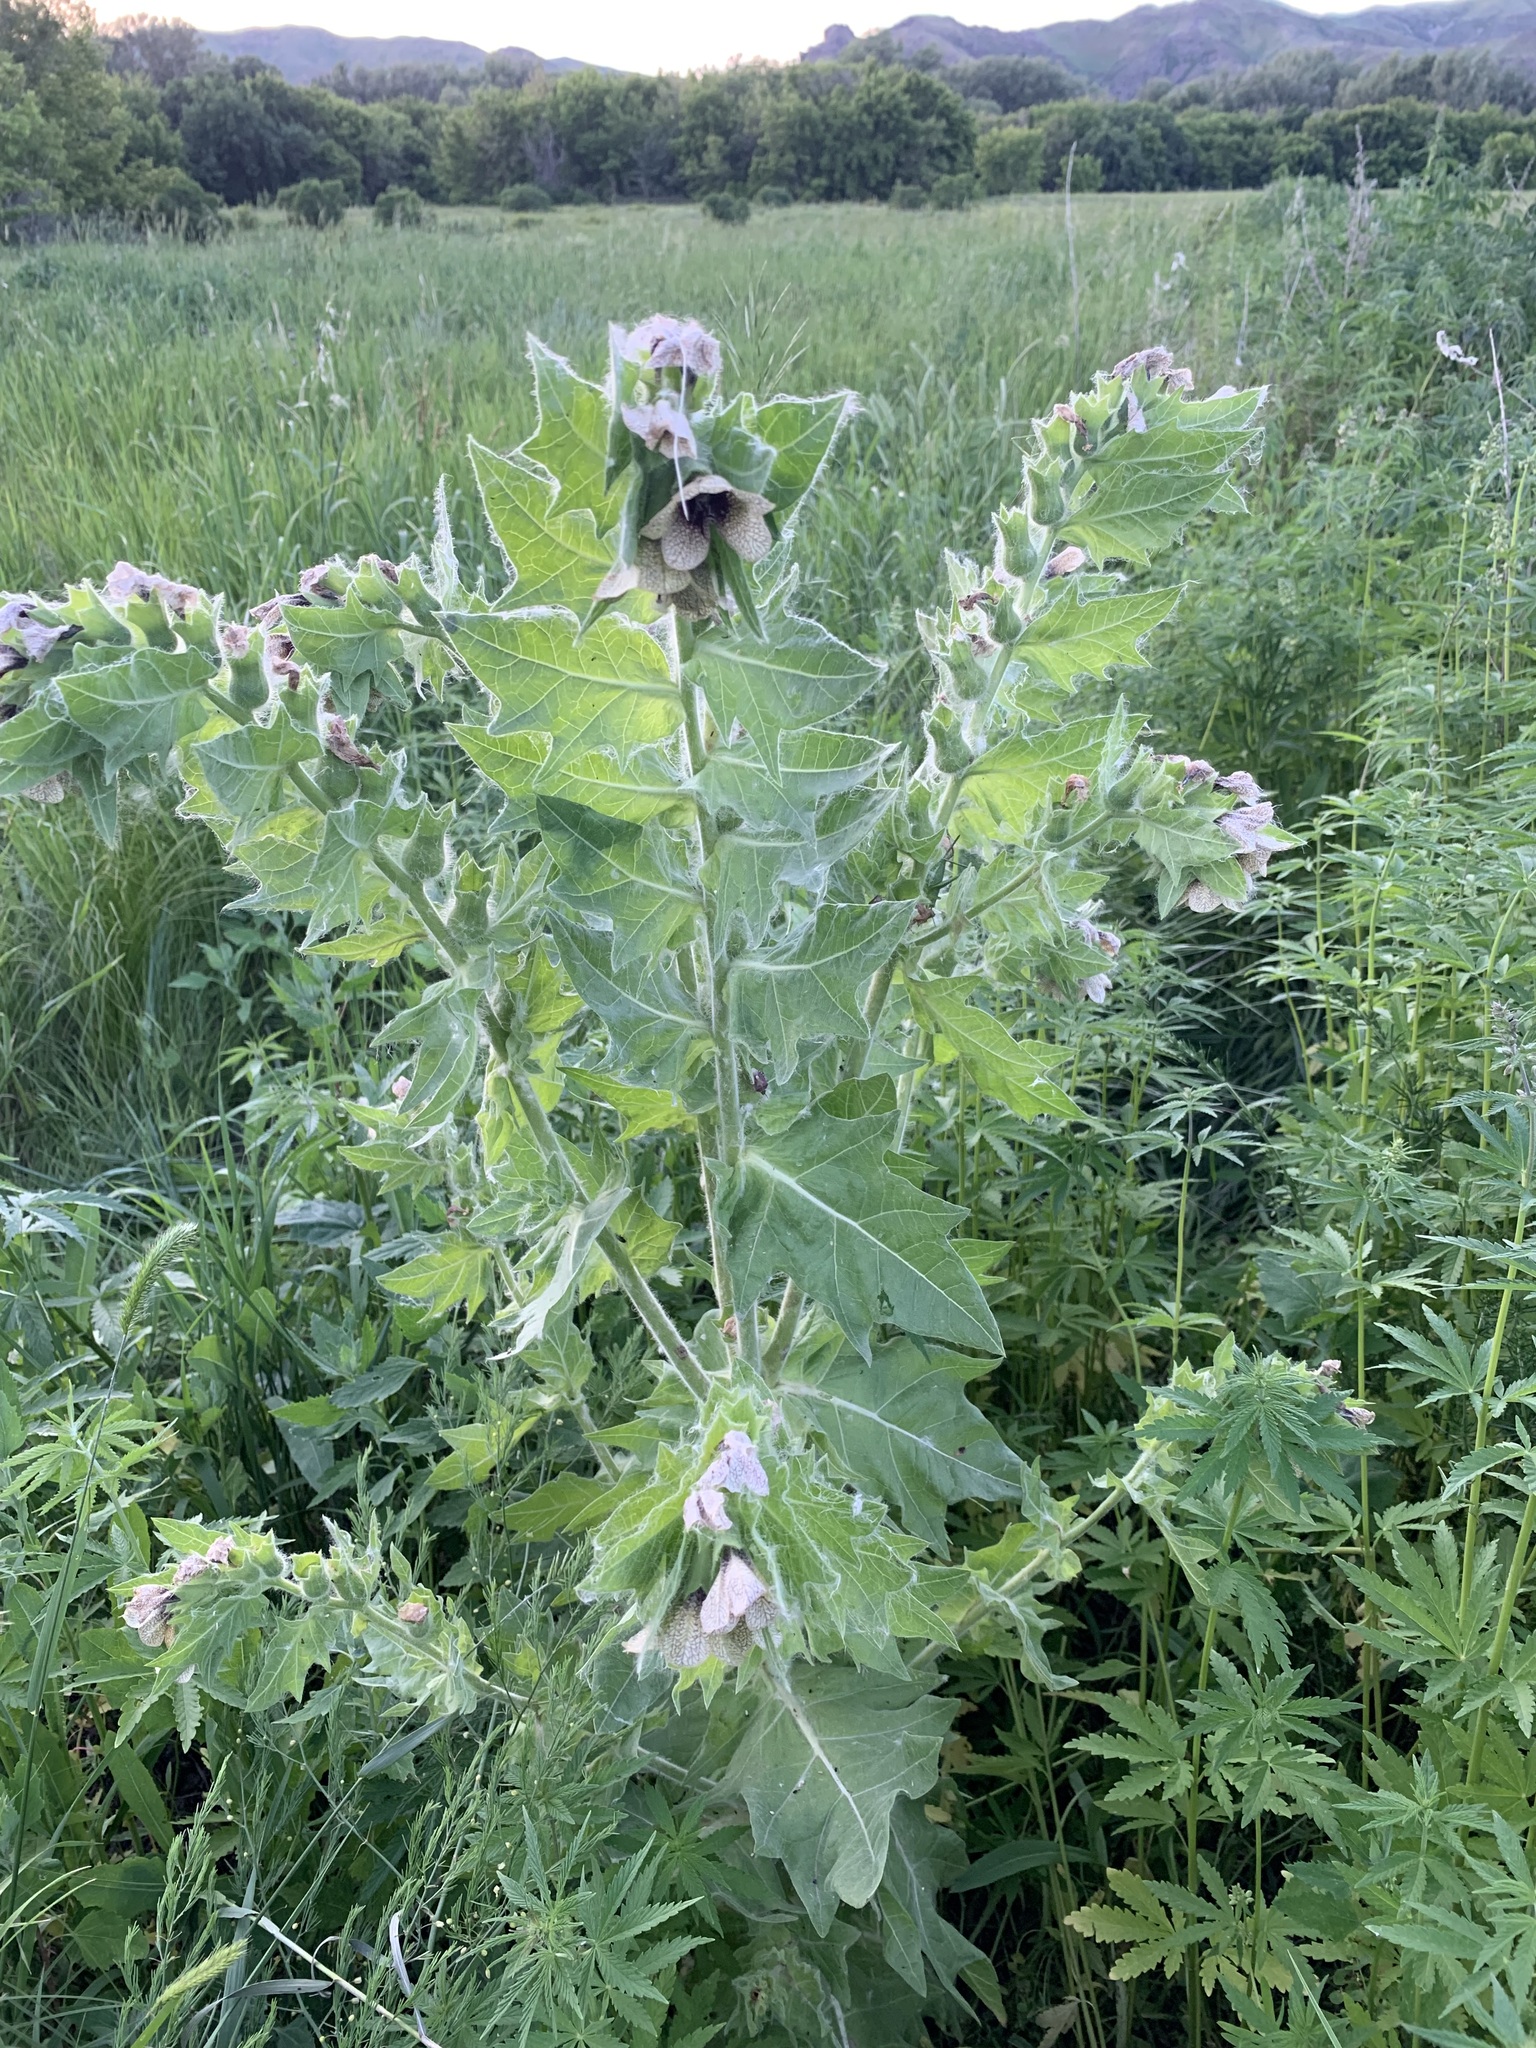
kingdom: Plantae
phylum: Tracheophyta
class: Magnoliopsida
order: Solanales
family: Solanaceae
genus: Hyoscyamus
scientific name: Hyoscyamus niger
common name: Henbane
